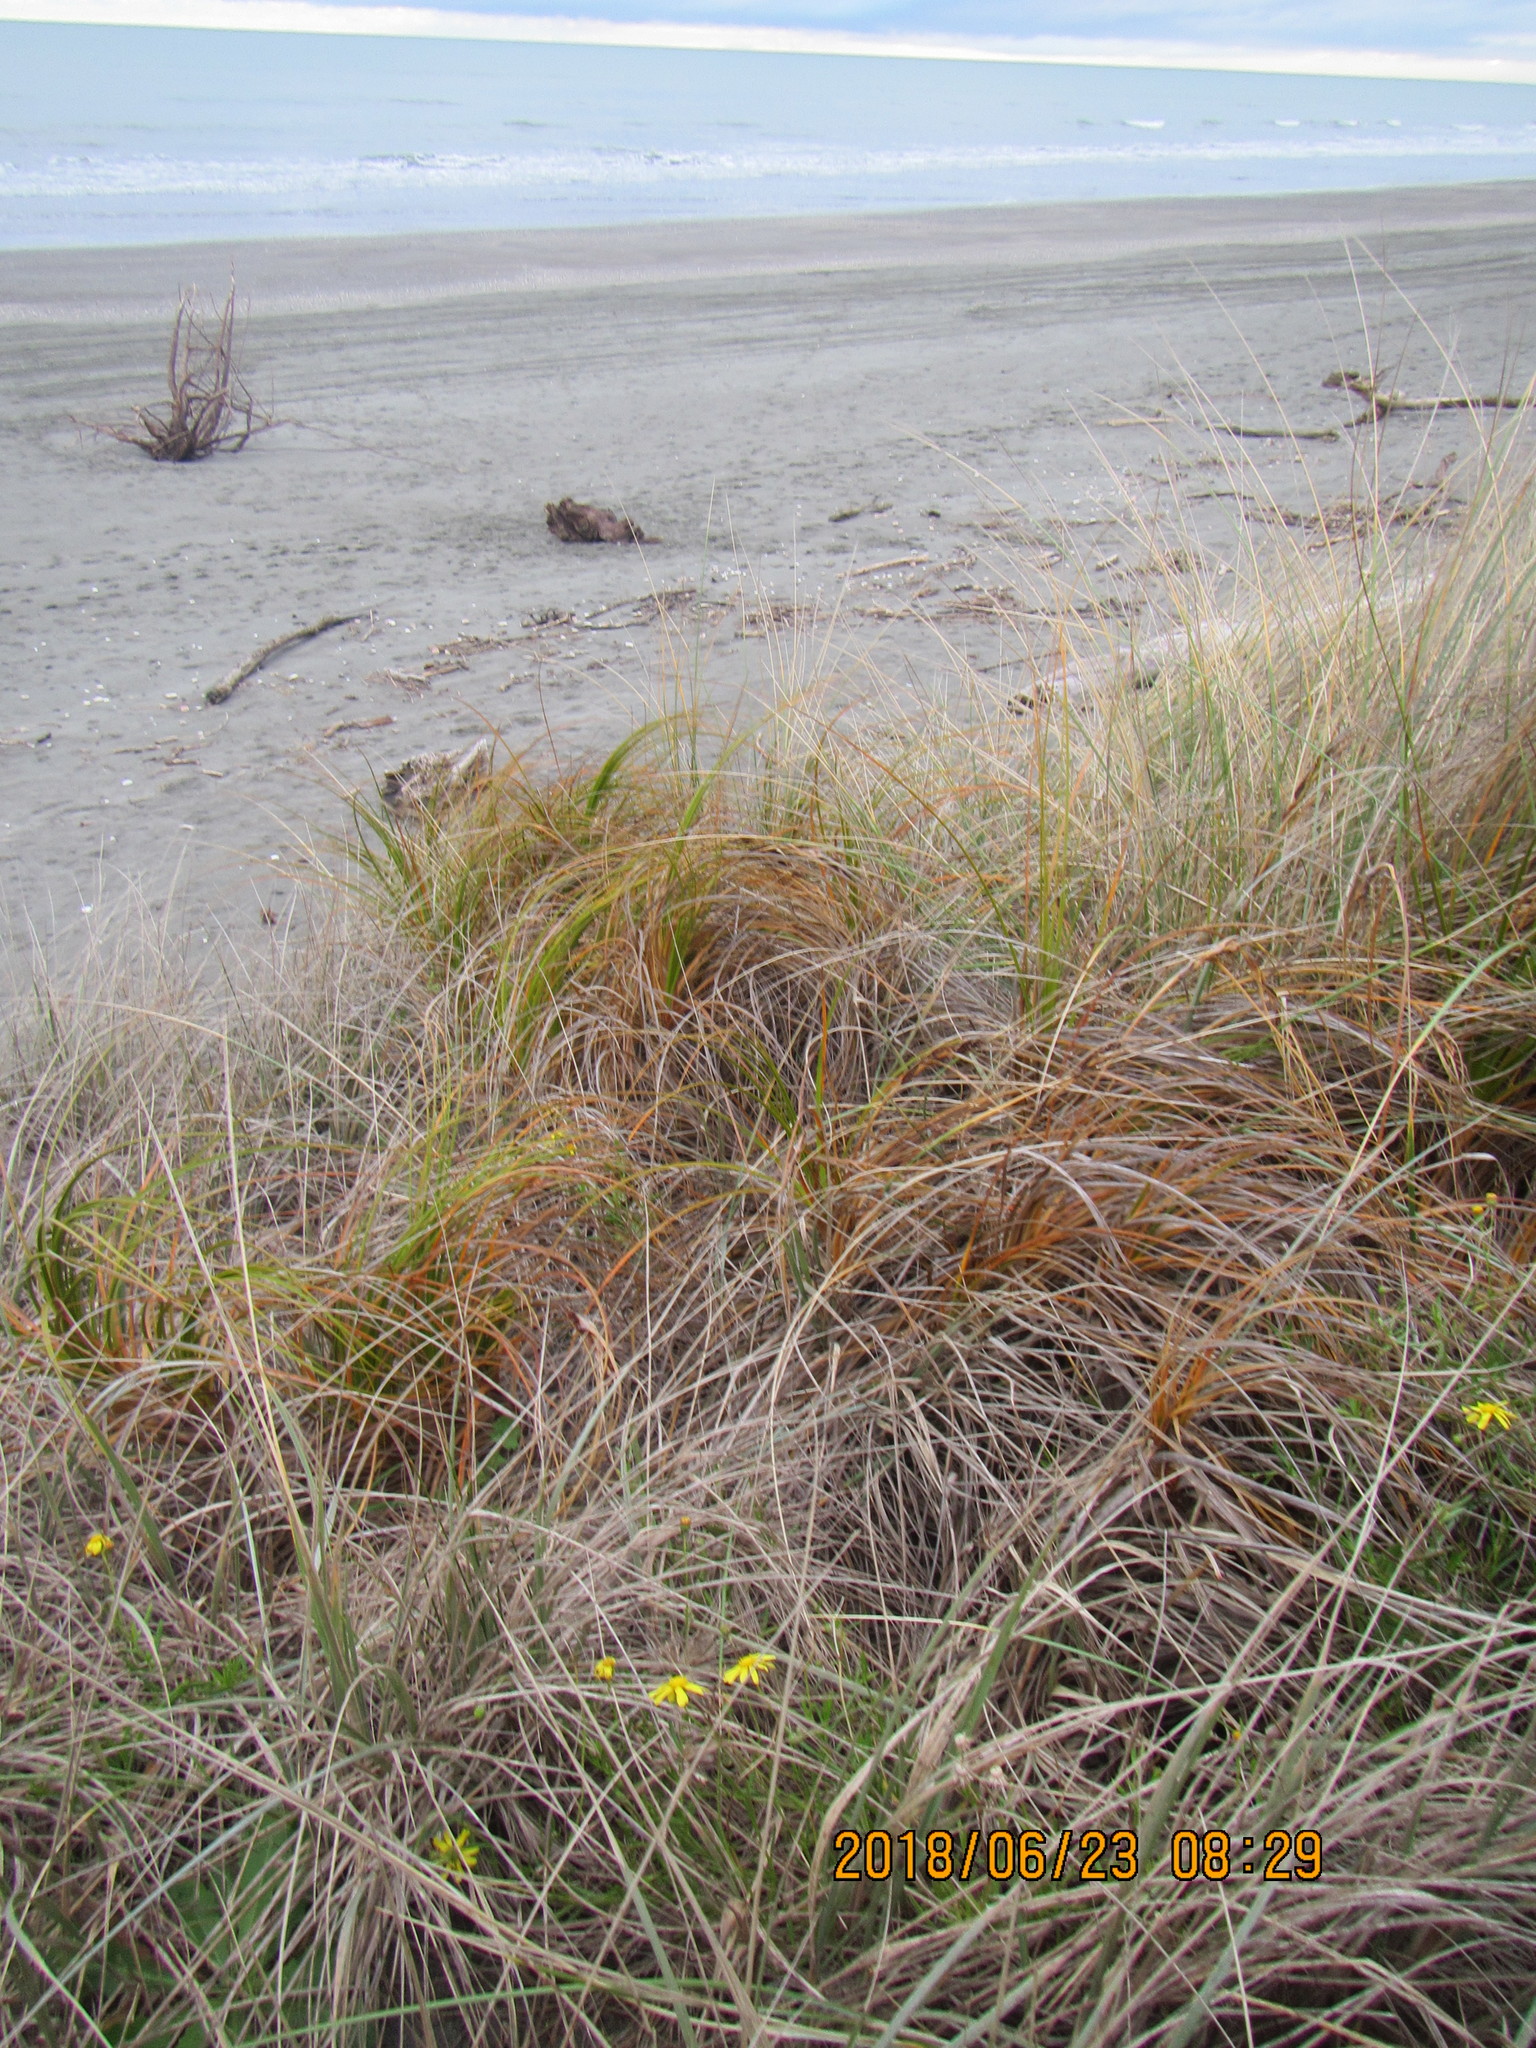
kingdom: Plantae
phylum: Tracheophyta
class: Liliopsida
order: Poales
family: Cyperaceae
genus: Ficinia
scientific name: Ficinia spiralis
